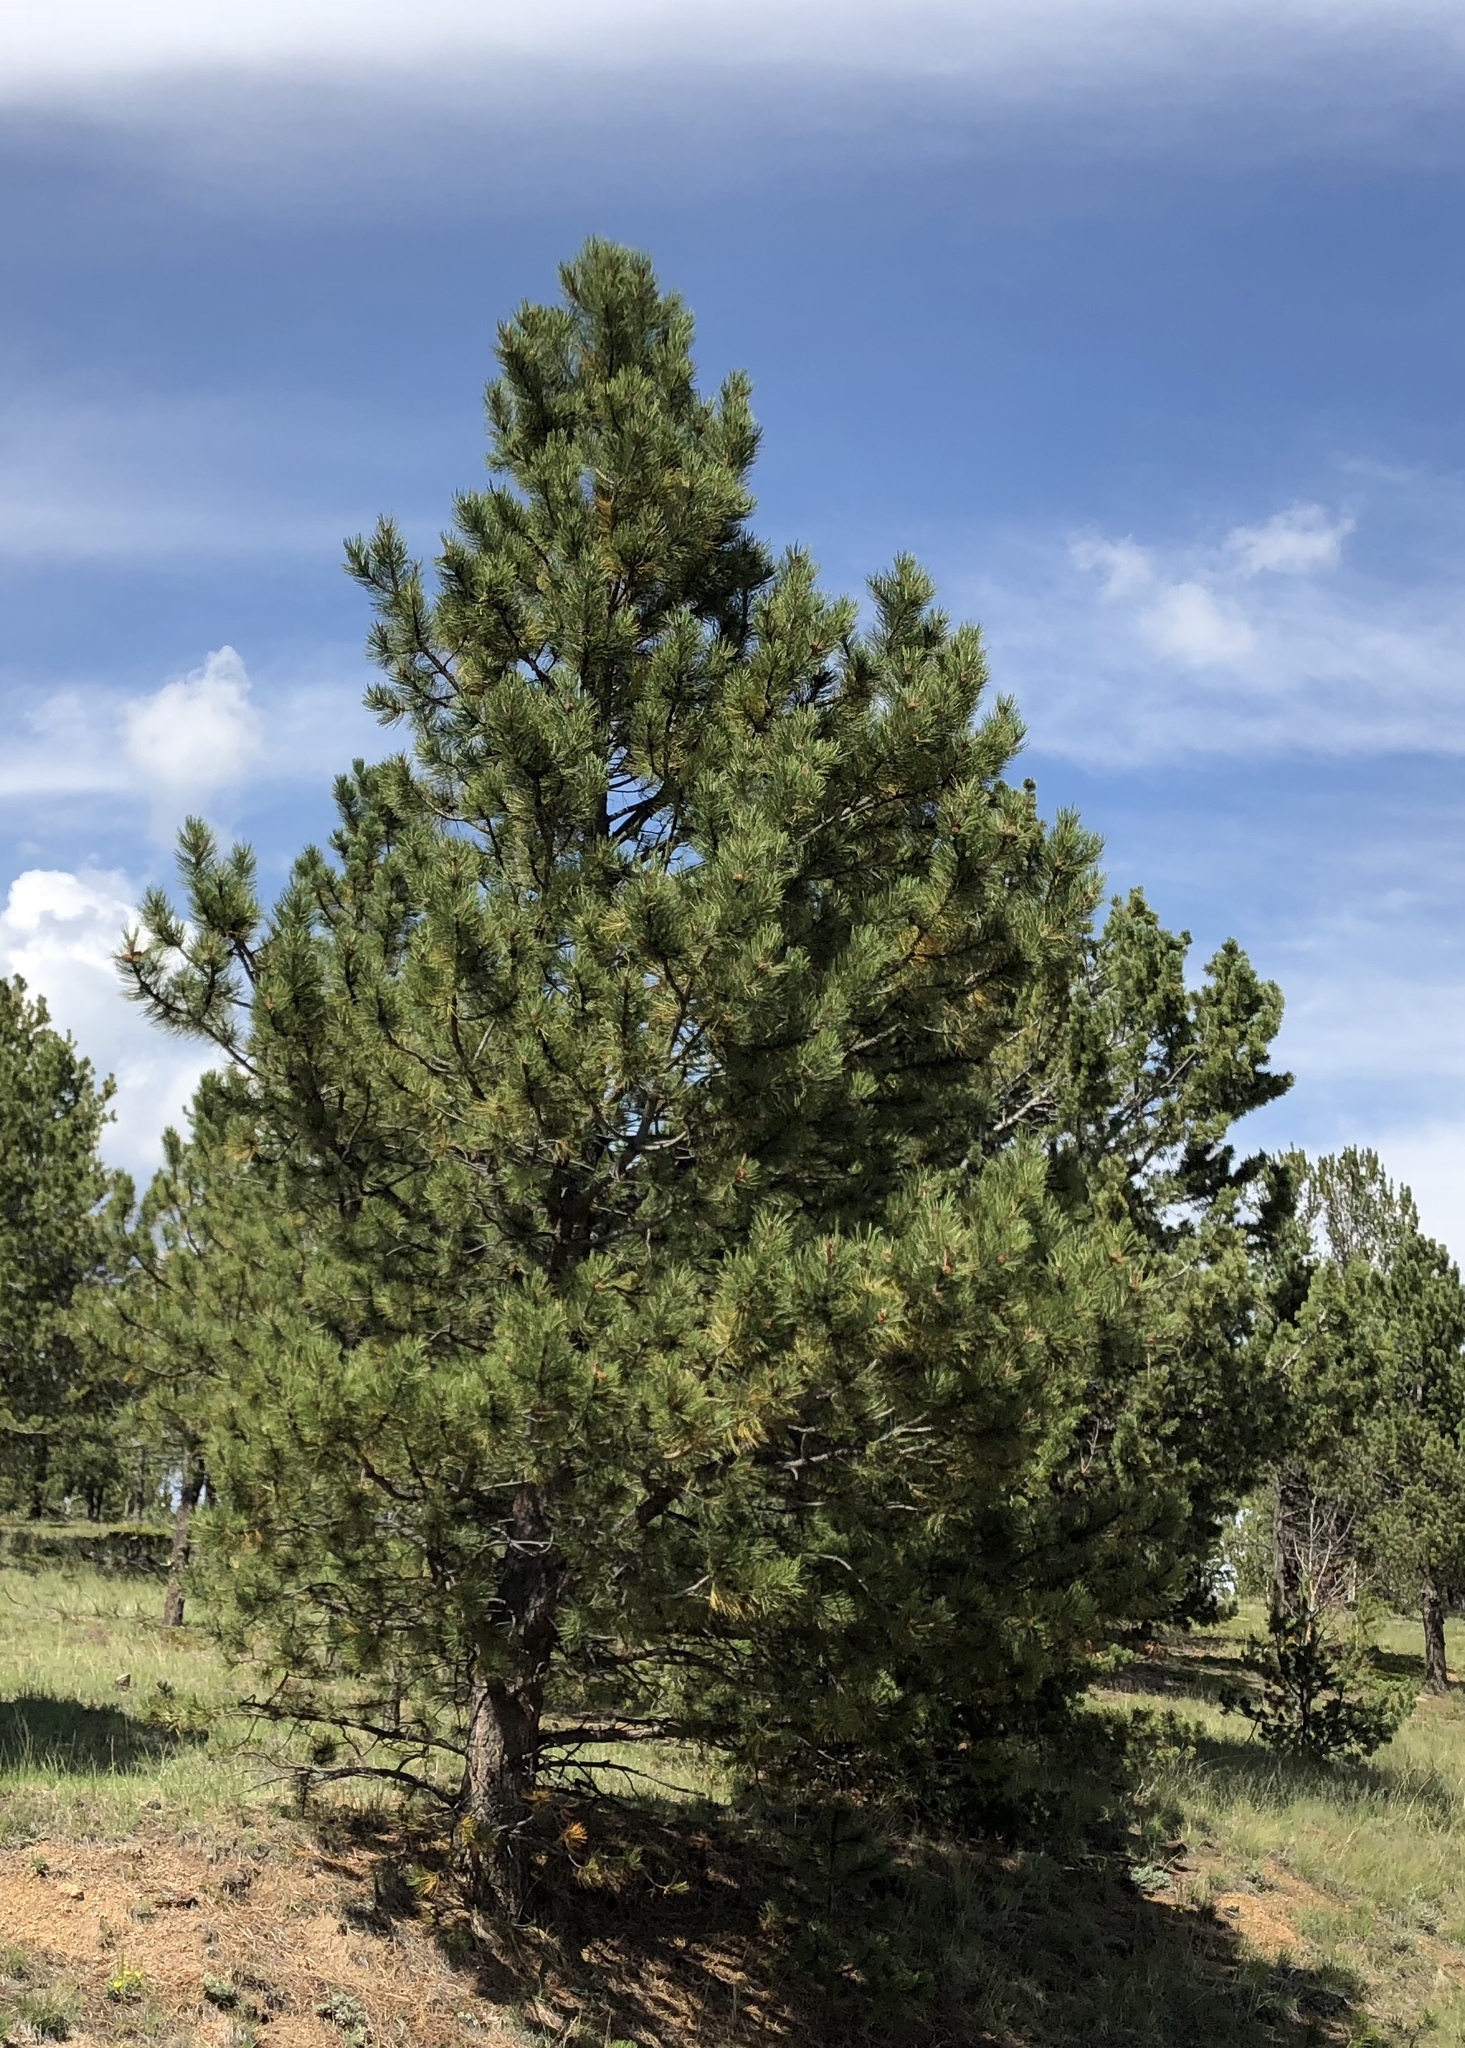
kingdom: Plantae
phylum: Tracheophyta
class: Pinopsida
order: Pinales
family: Pinaceae
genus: Pinus
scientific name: Pinus ponderosa
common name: Western yellow-pine
